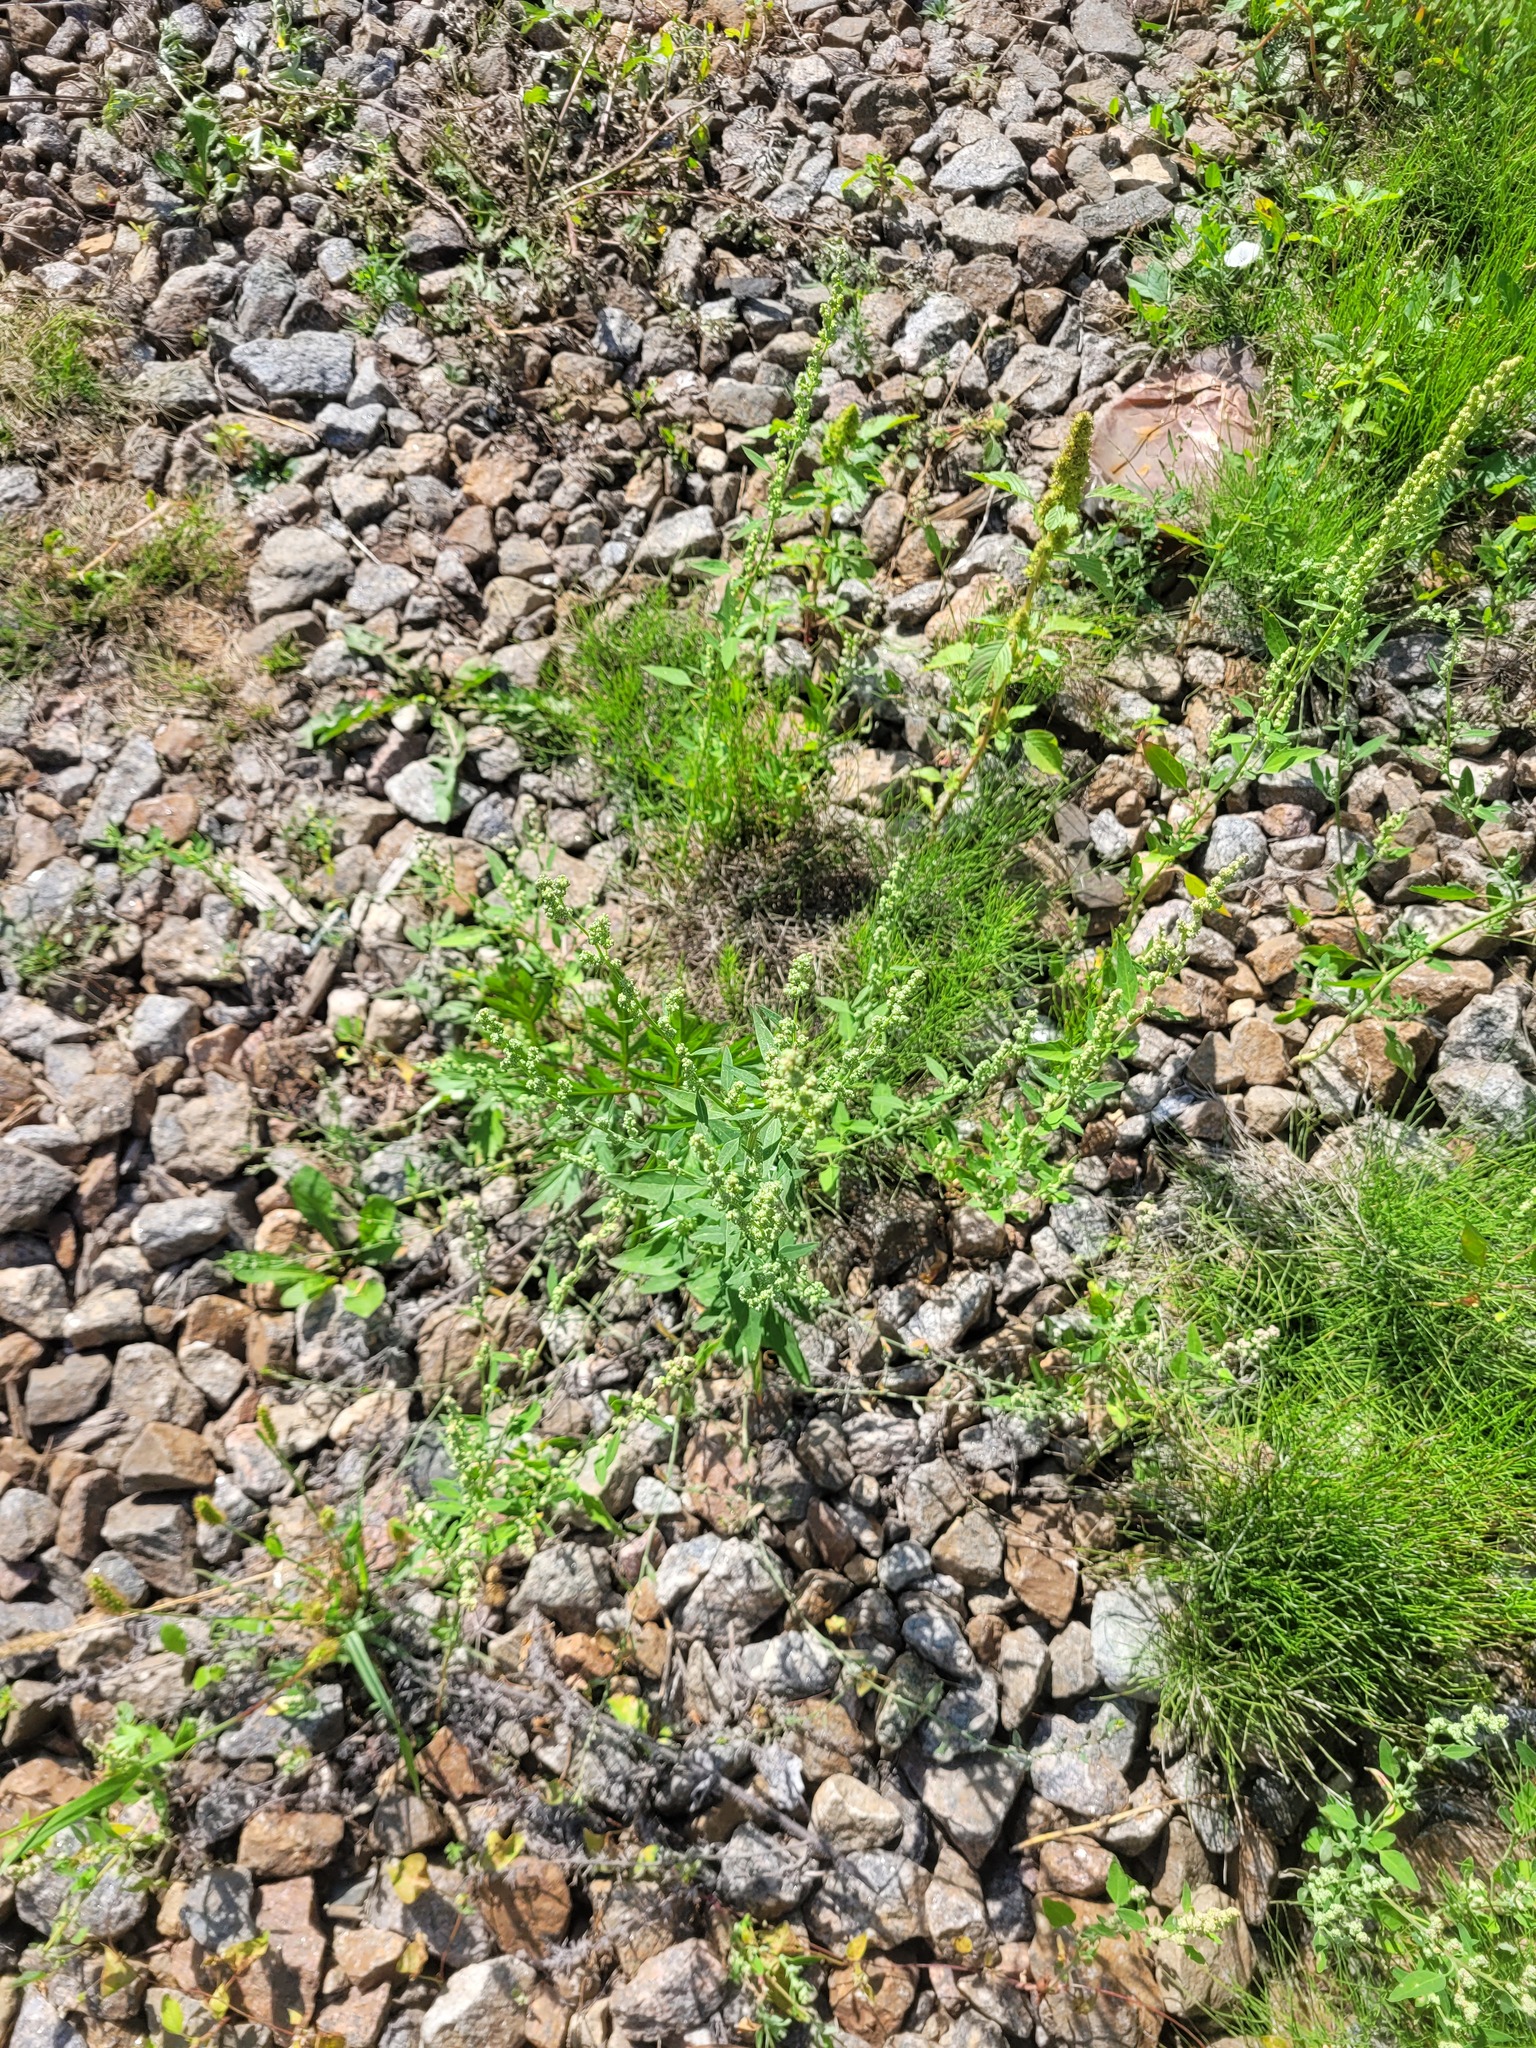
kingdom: Plantae
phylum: Tracheophyta
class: Magnoliopsida
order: Caryophyllales
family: Amaranthaceae
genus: Chenopodium
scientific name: Chenopodium album
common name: Fat-hen
